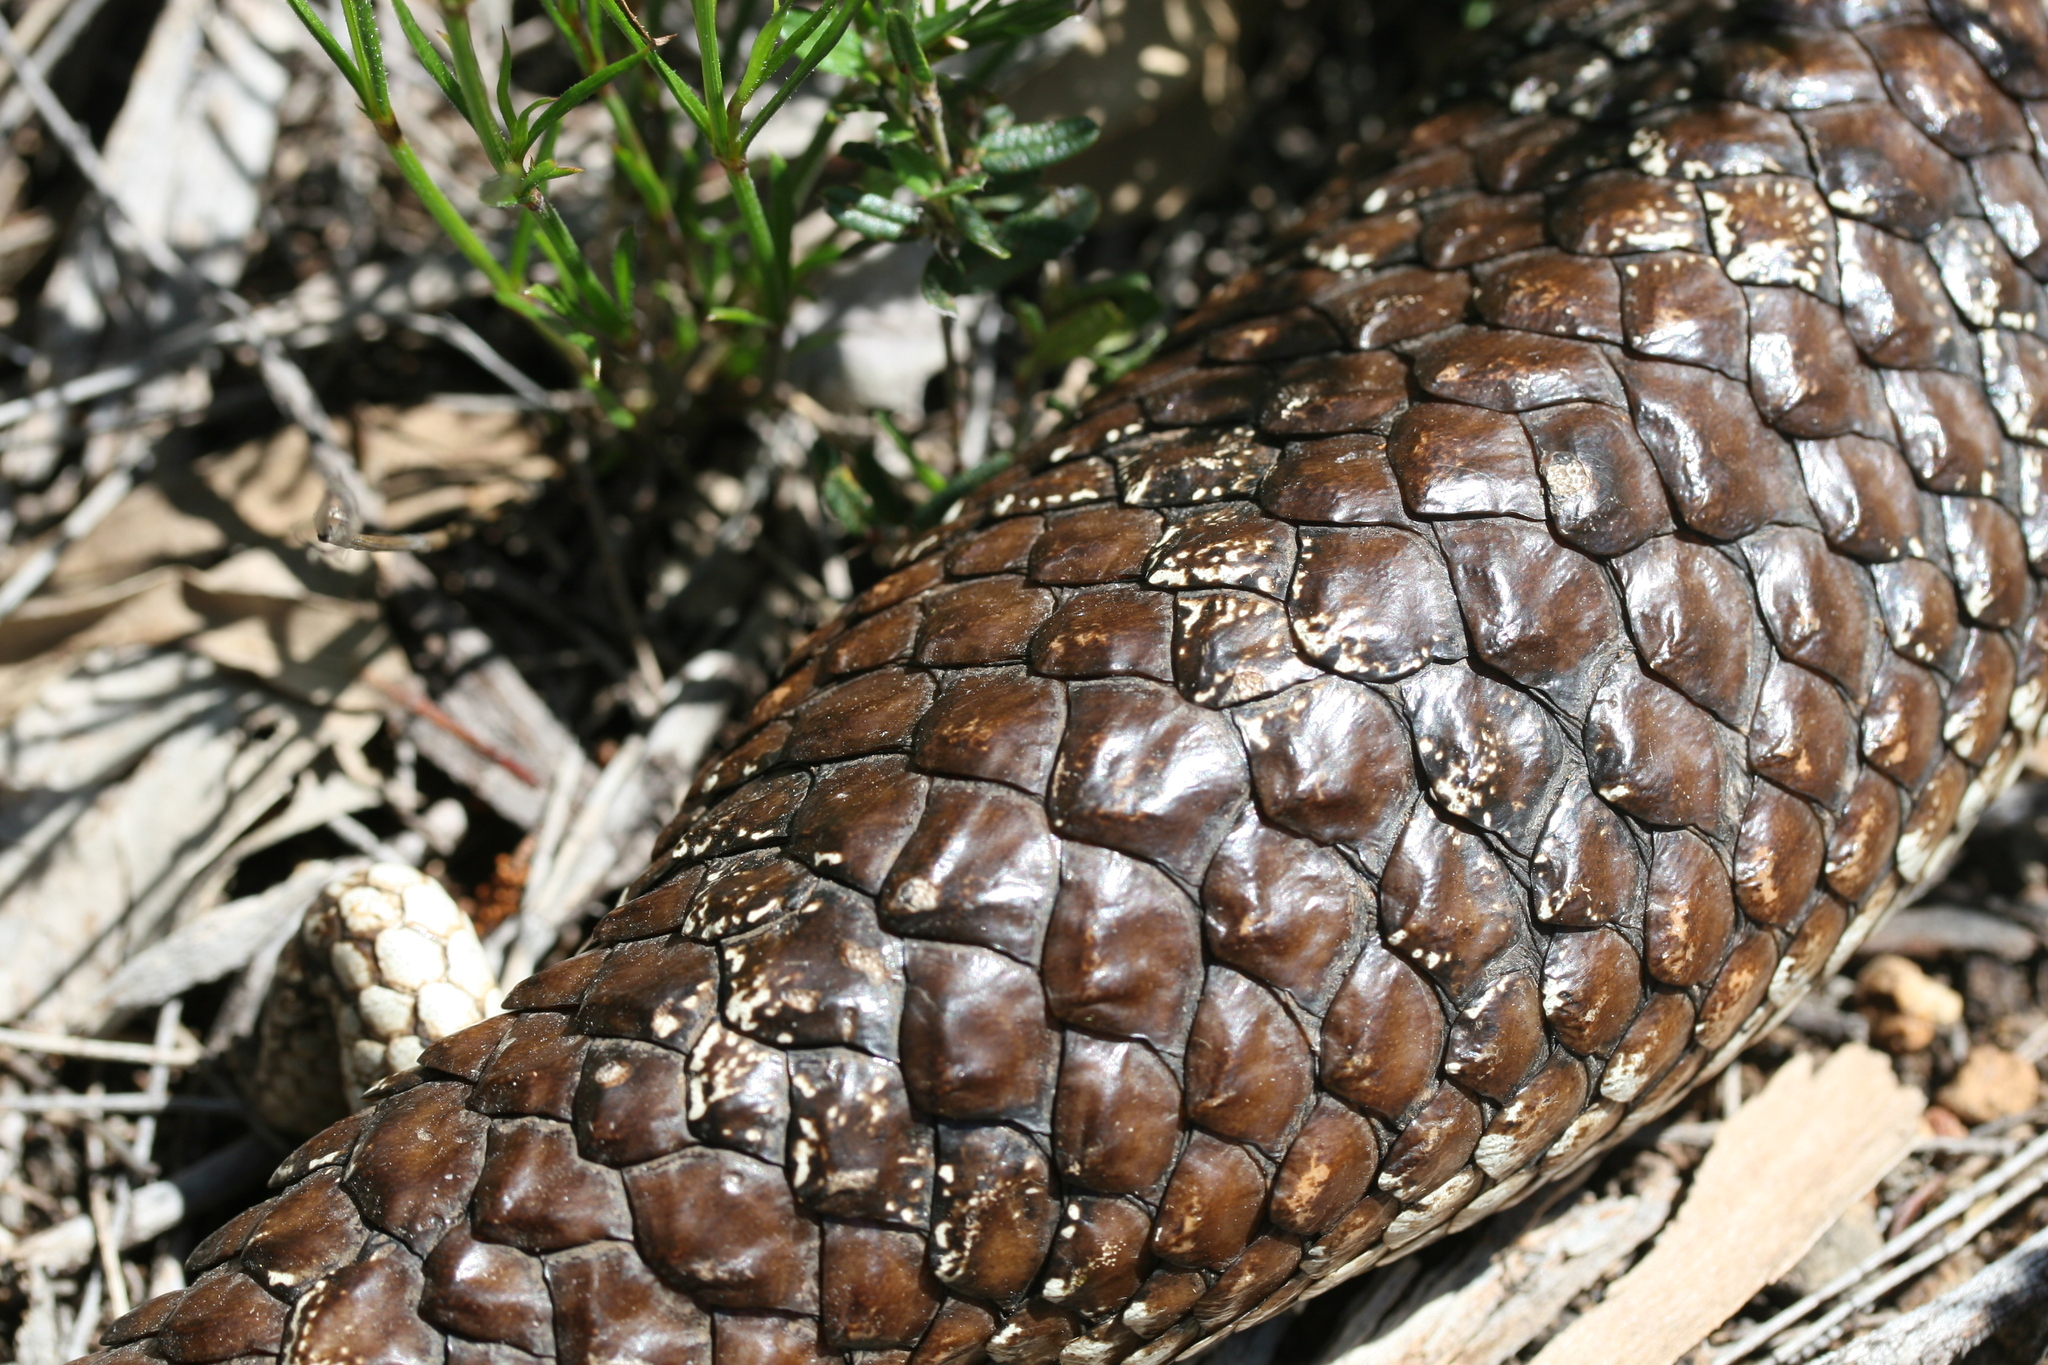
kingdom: Animalia
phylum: Chordata
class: Squamata
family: Scincidae
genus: Tiliqua
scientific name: Tiliqua rugosa
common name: Pinecone lizard
